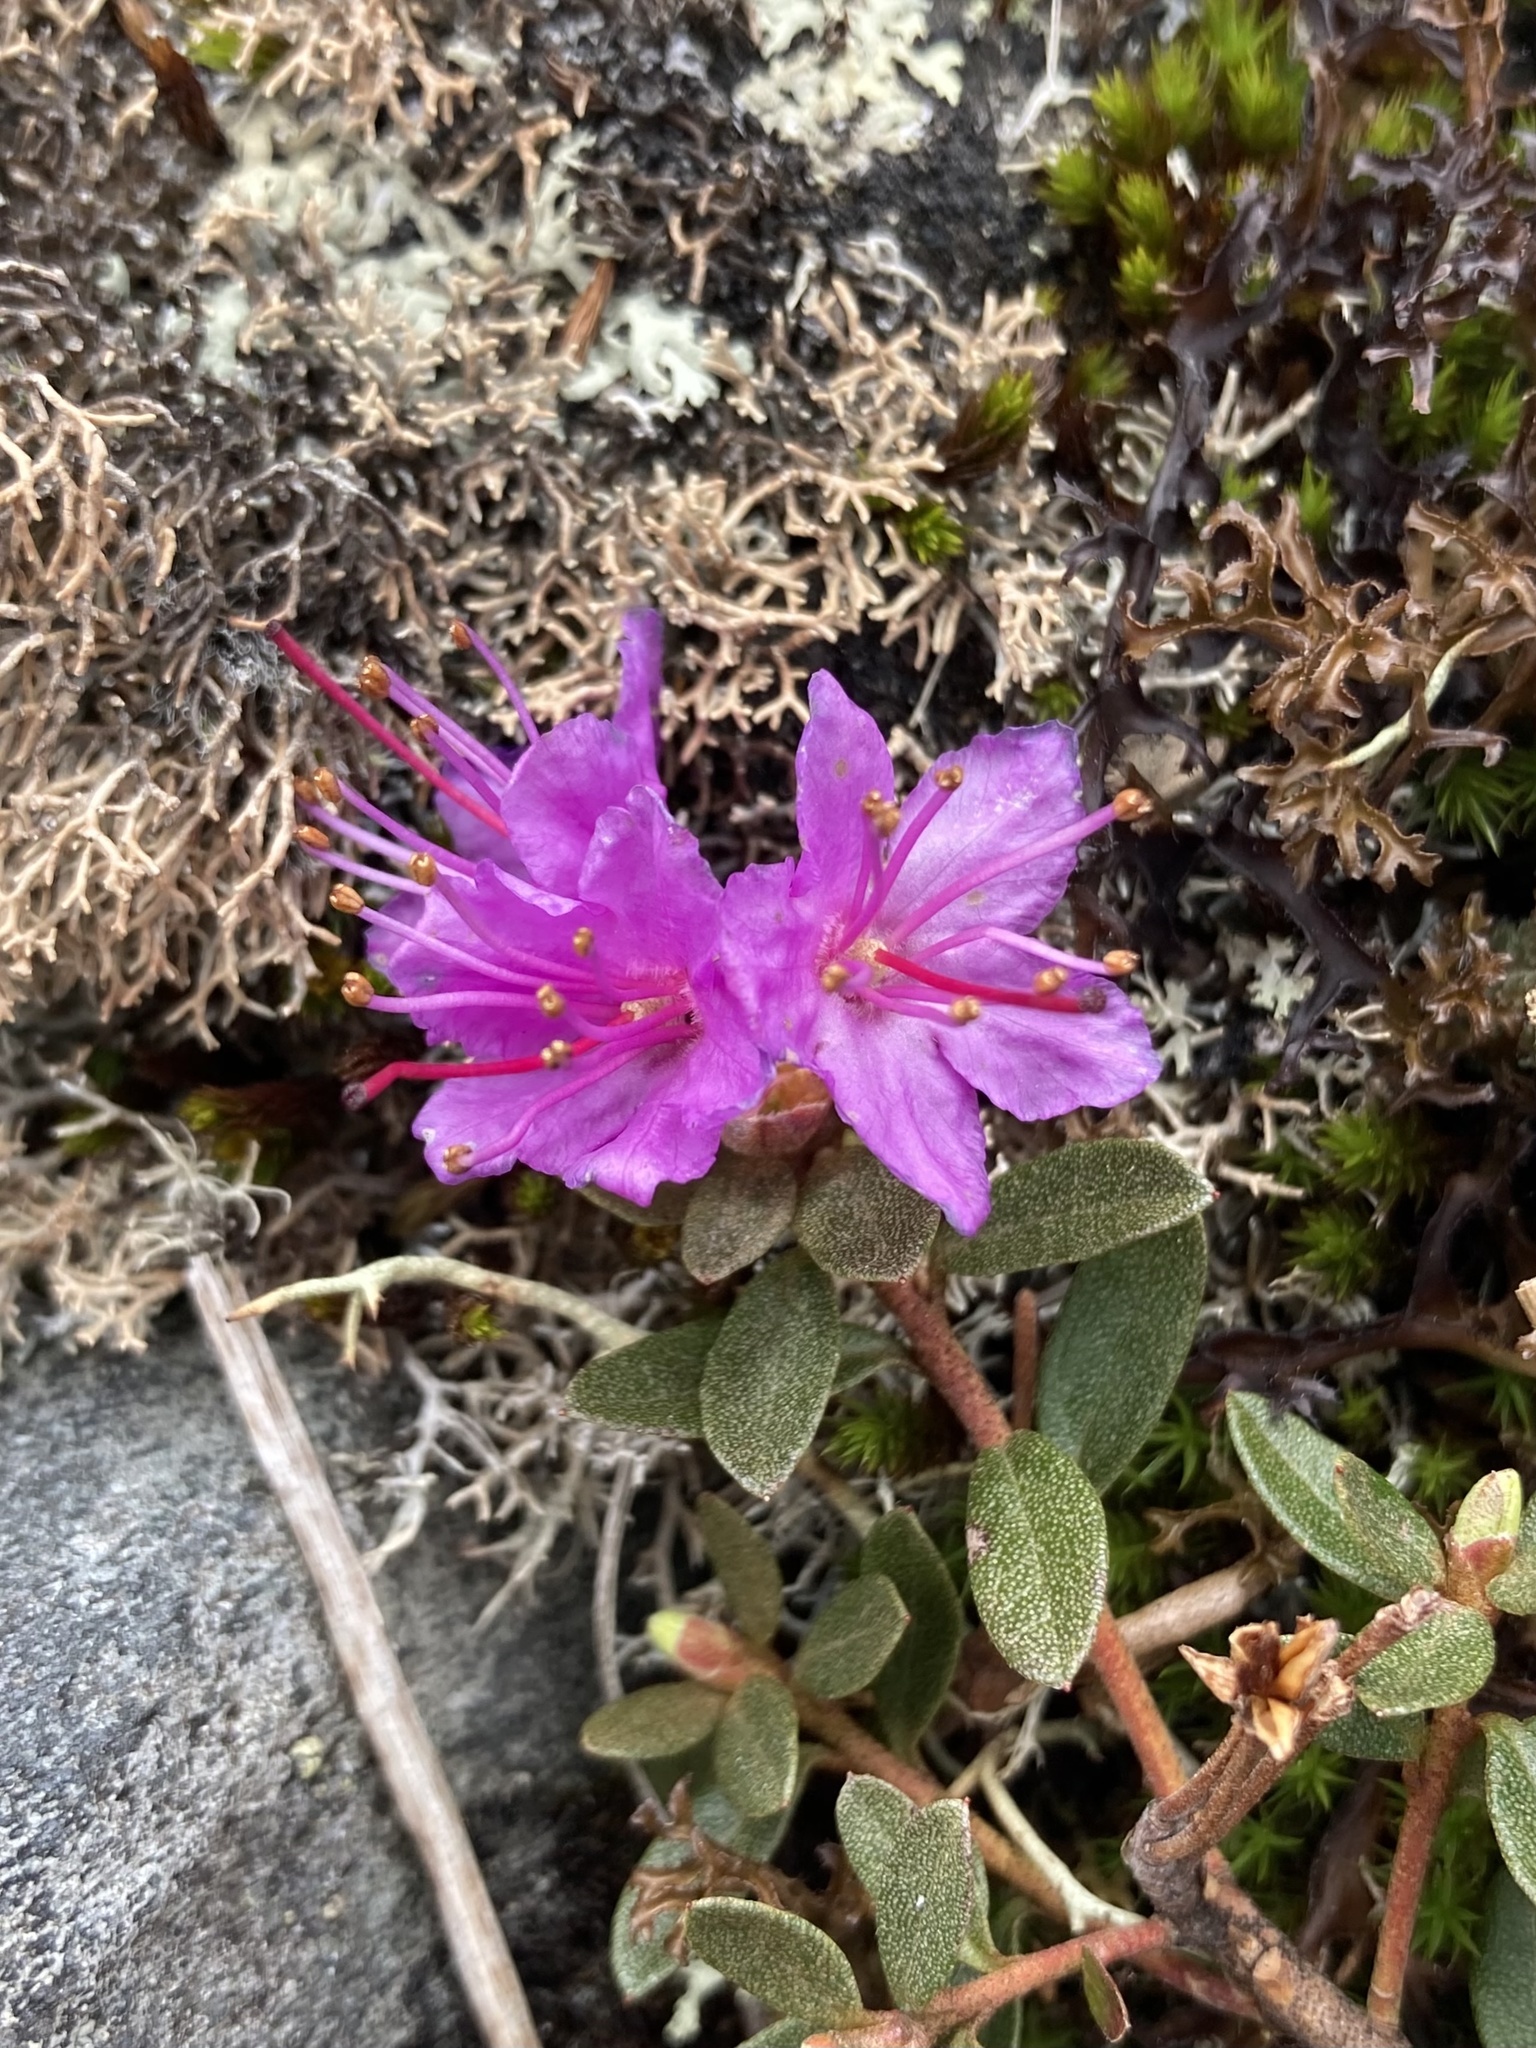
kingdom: Plantae
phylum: Tracheophyta
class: Magnoliopsida
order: Ericales
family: Ericaceae
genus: Rhododendron
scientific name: Rhododendron lapponicum
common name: Lapland rhododendron
